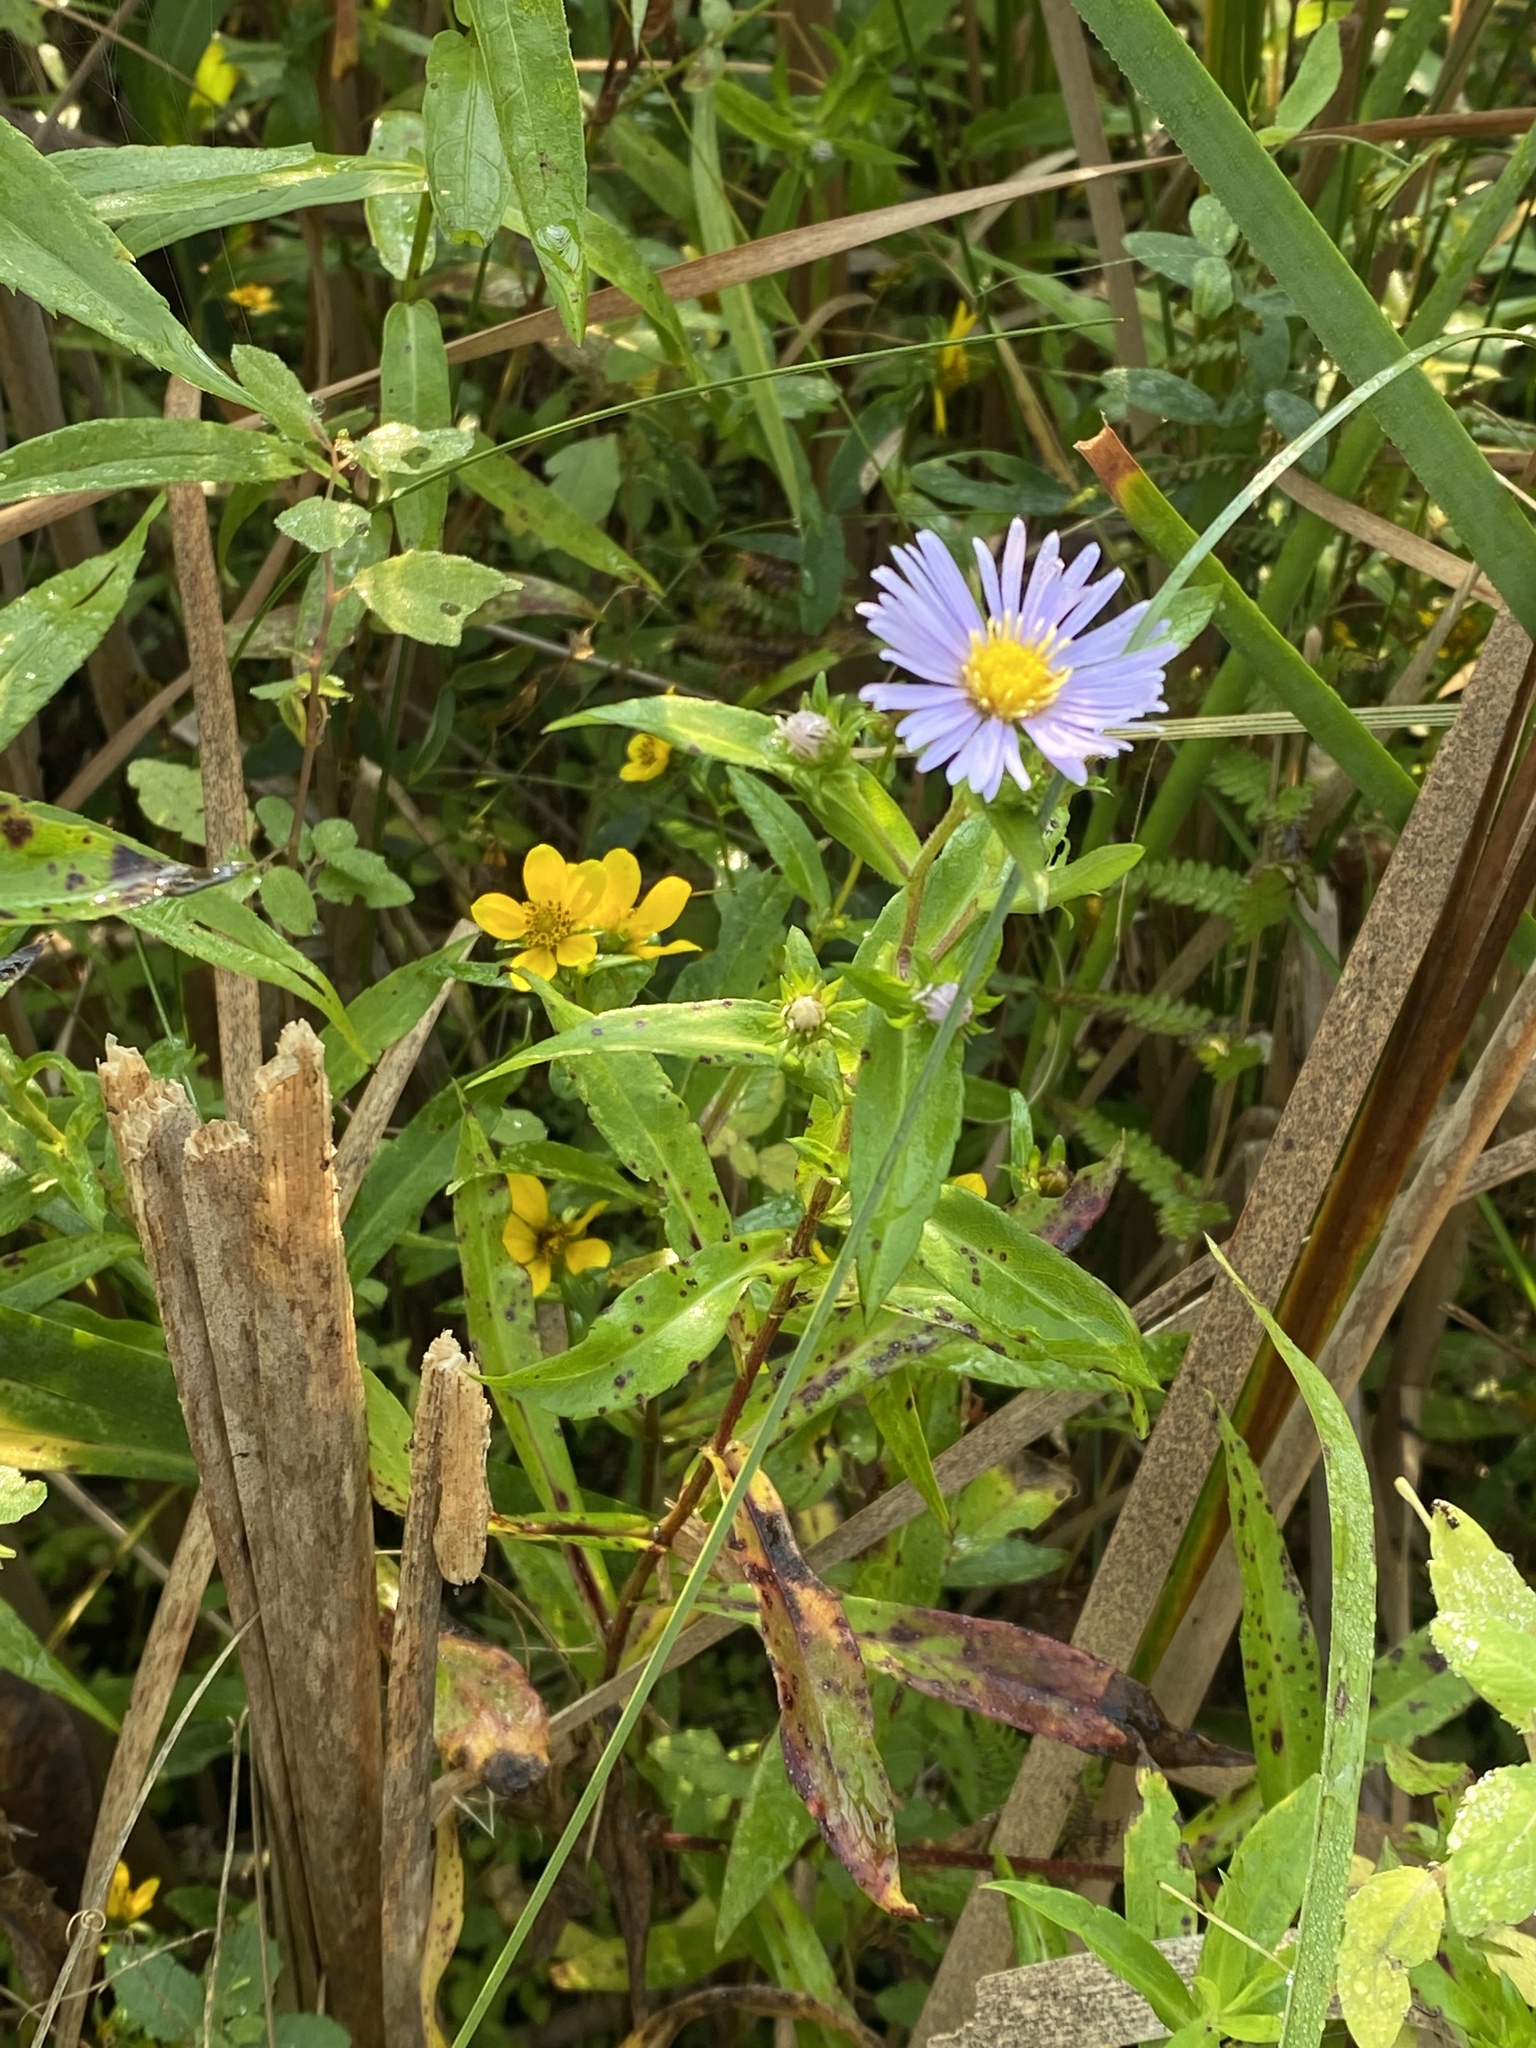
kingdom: Plantae
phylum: Tracheophyta
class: Magnoliopsida
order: Asterales
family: Asteraceae
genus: Symphyotrichum
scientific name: Symphyotrichum puniceum
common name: Bog aster
